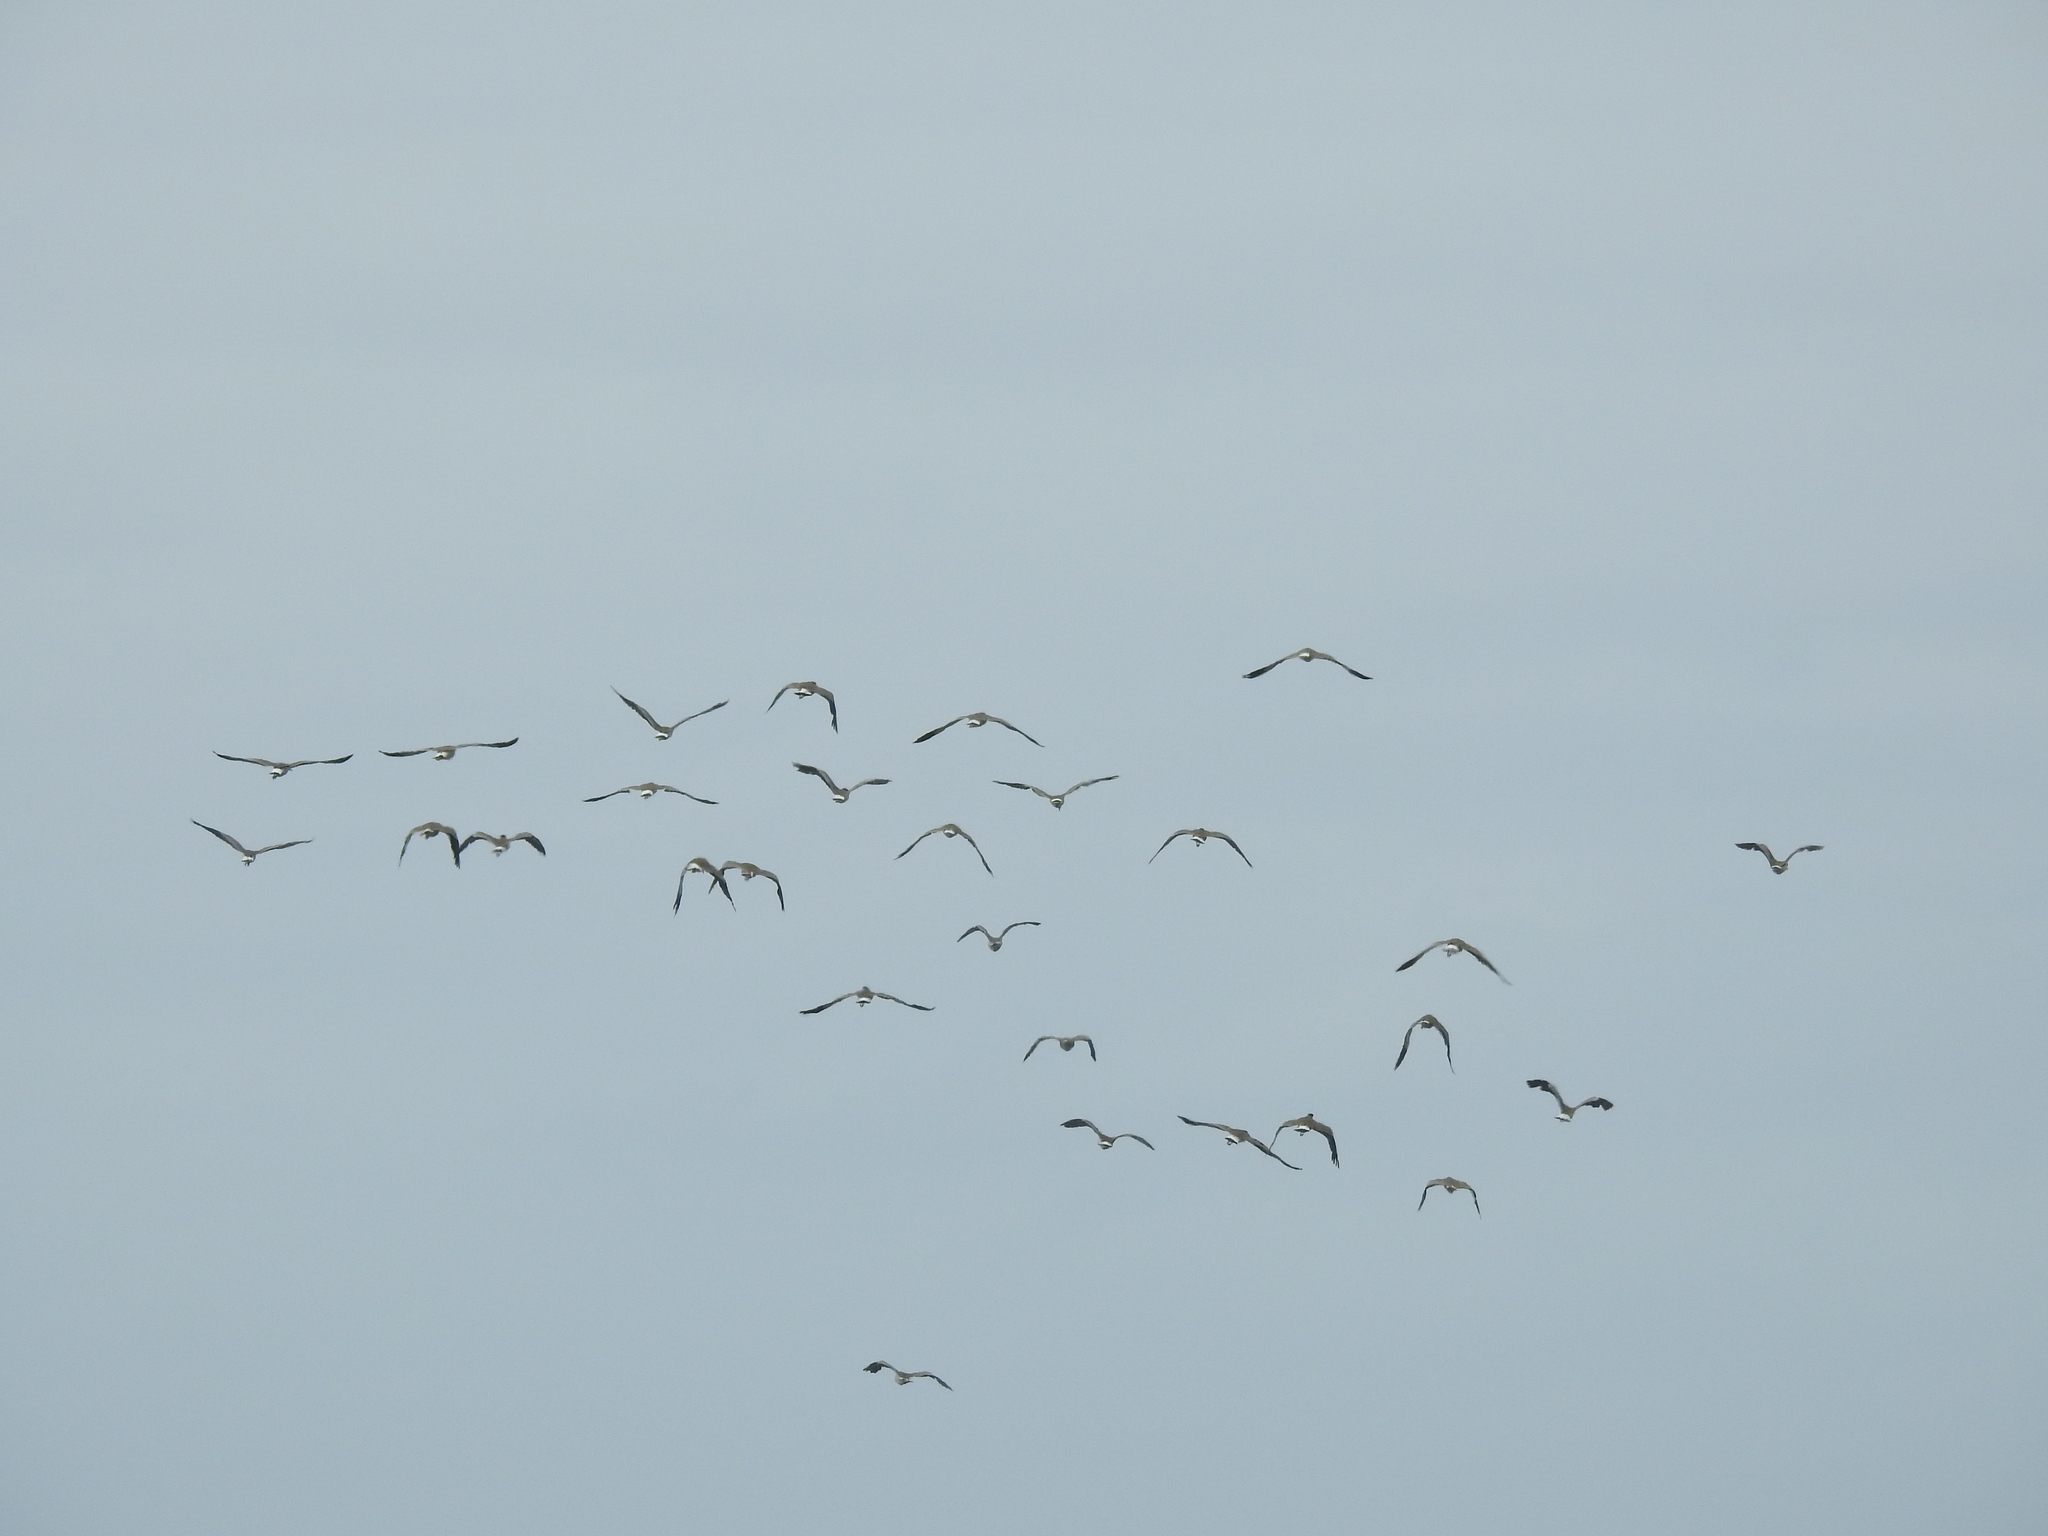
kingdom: Animalia
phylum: Chordata
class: Aves
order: Charadriiformes
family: Charadriidae
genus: Vanellus
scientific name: Vanellus miles
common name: Masked lapwing
